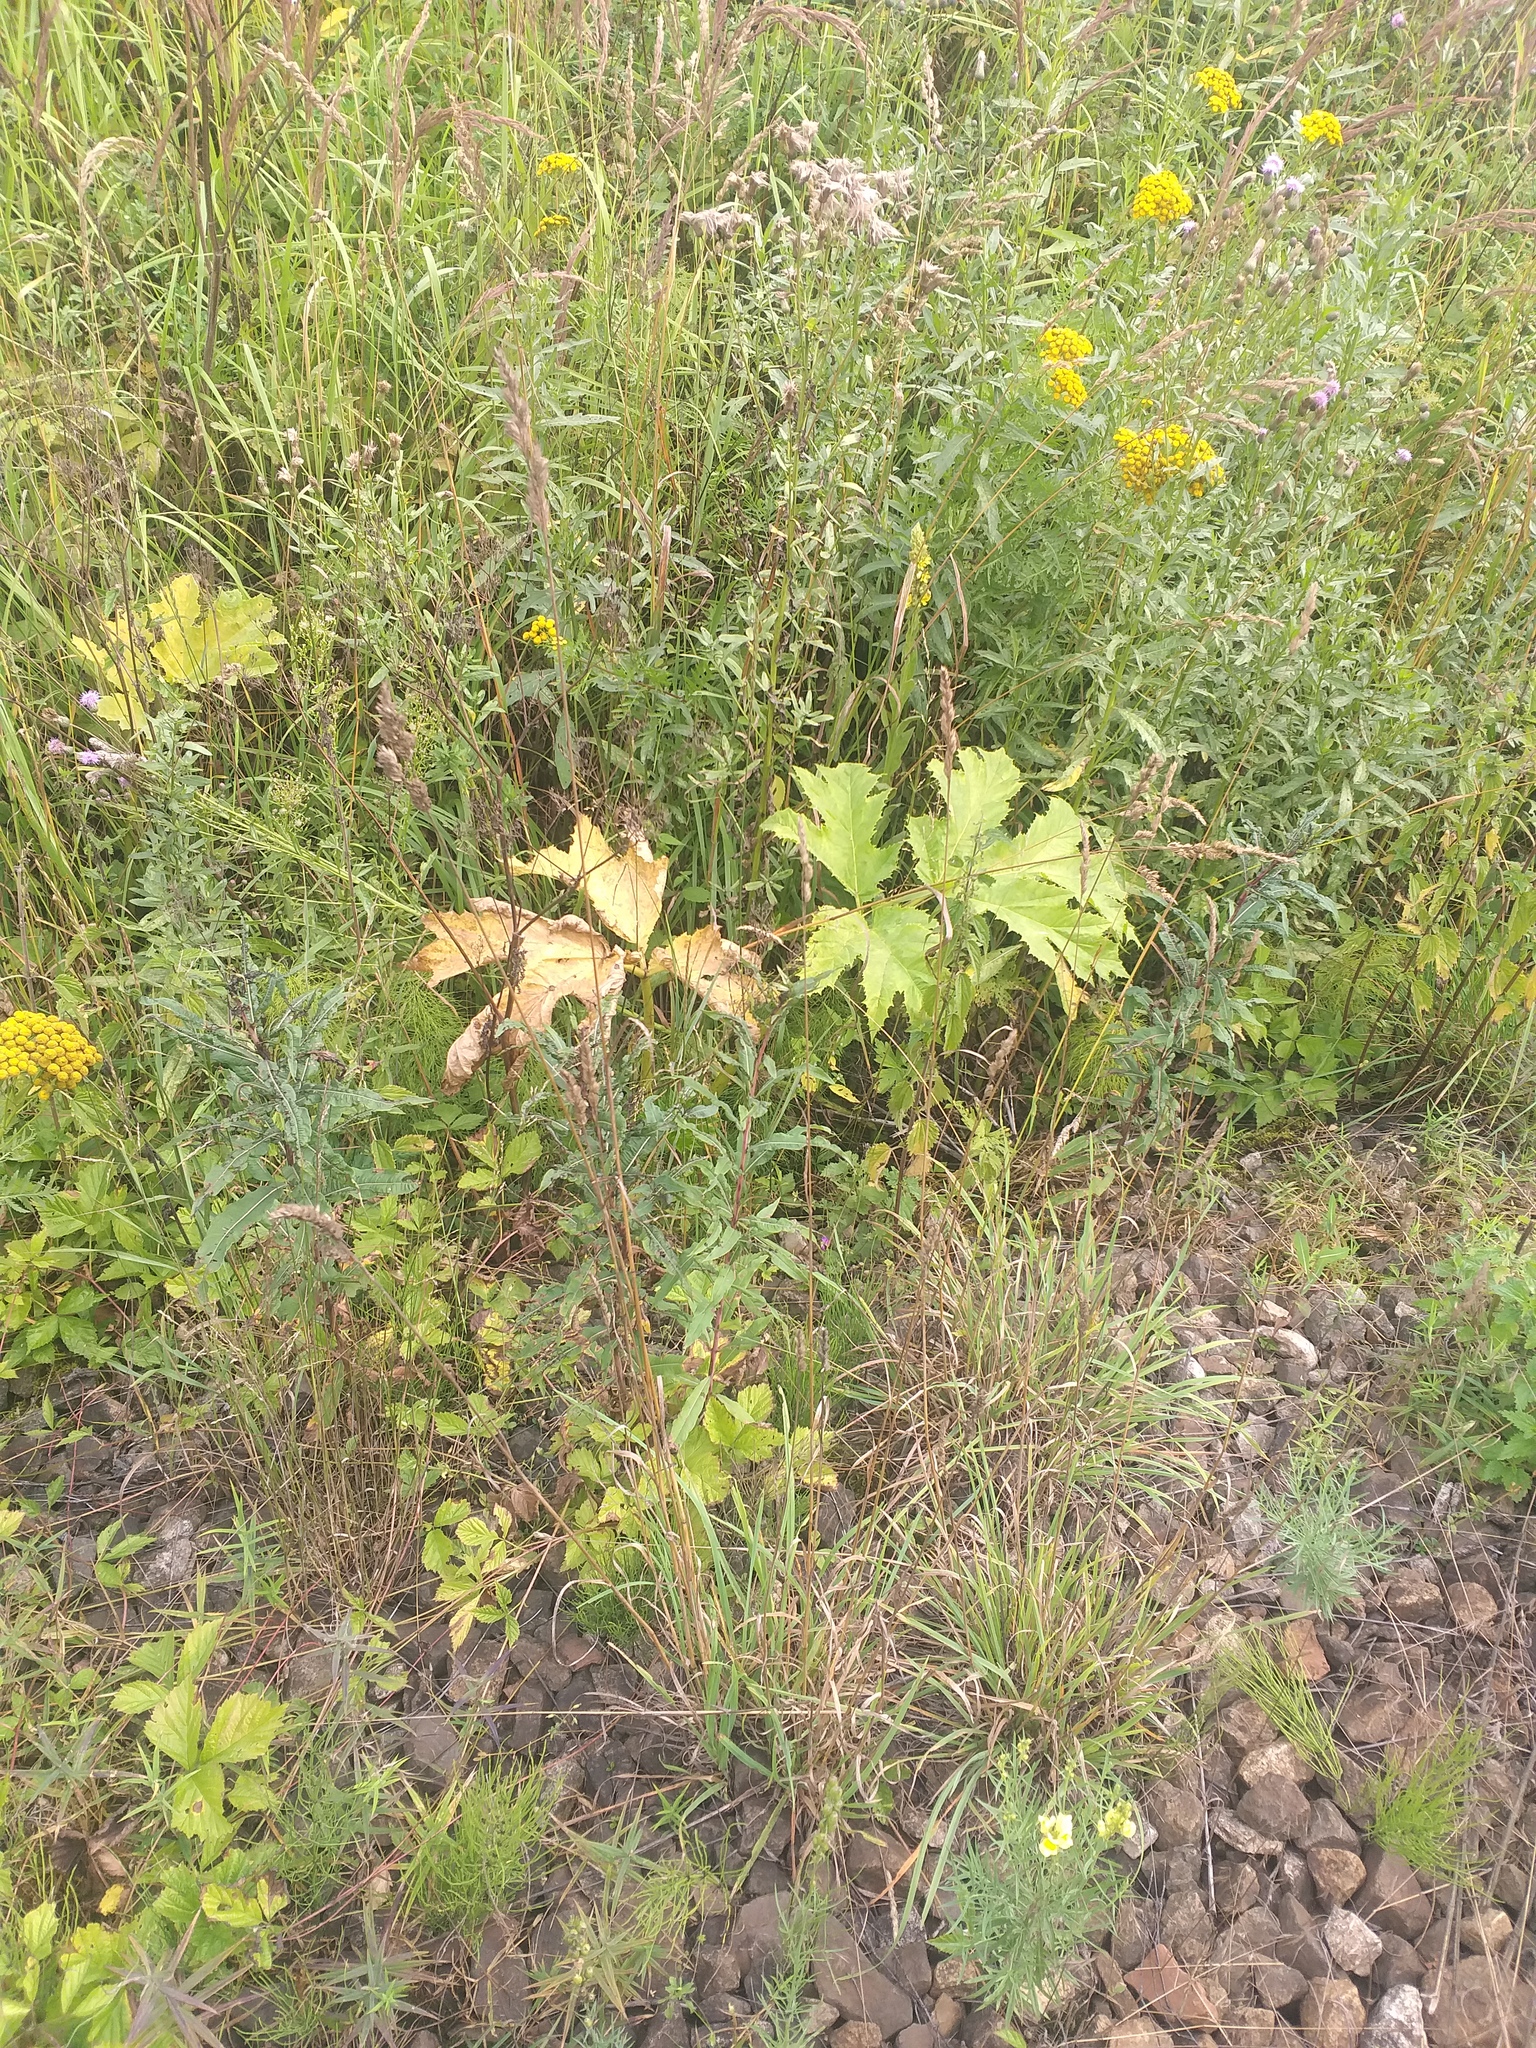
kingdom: Plantae
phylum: Tracheophyta
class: Liliopsida
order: Poales
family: Poaceae
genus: Dactylis
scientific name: Dactylis glomerata
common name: Orchardgrass
